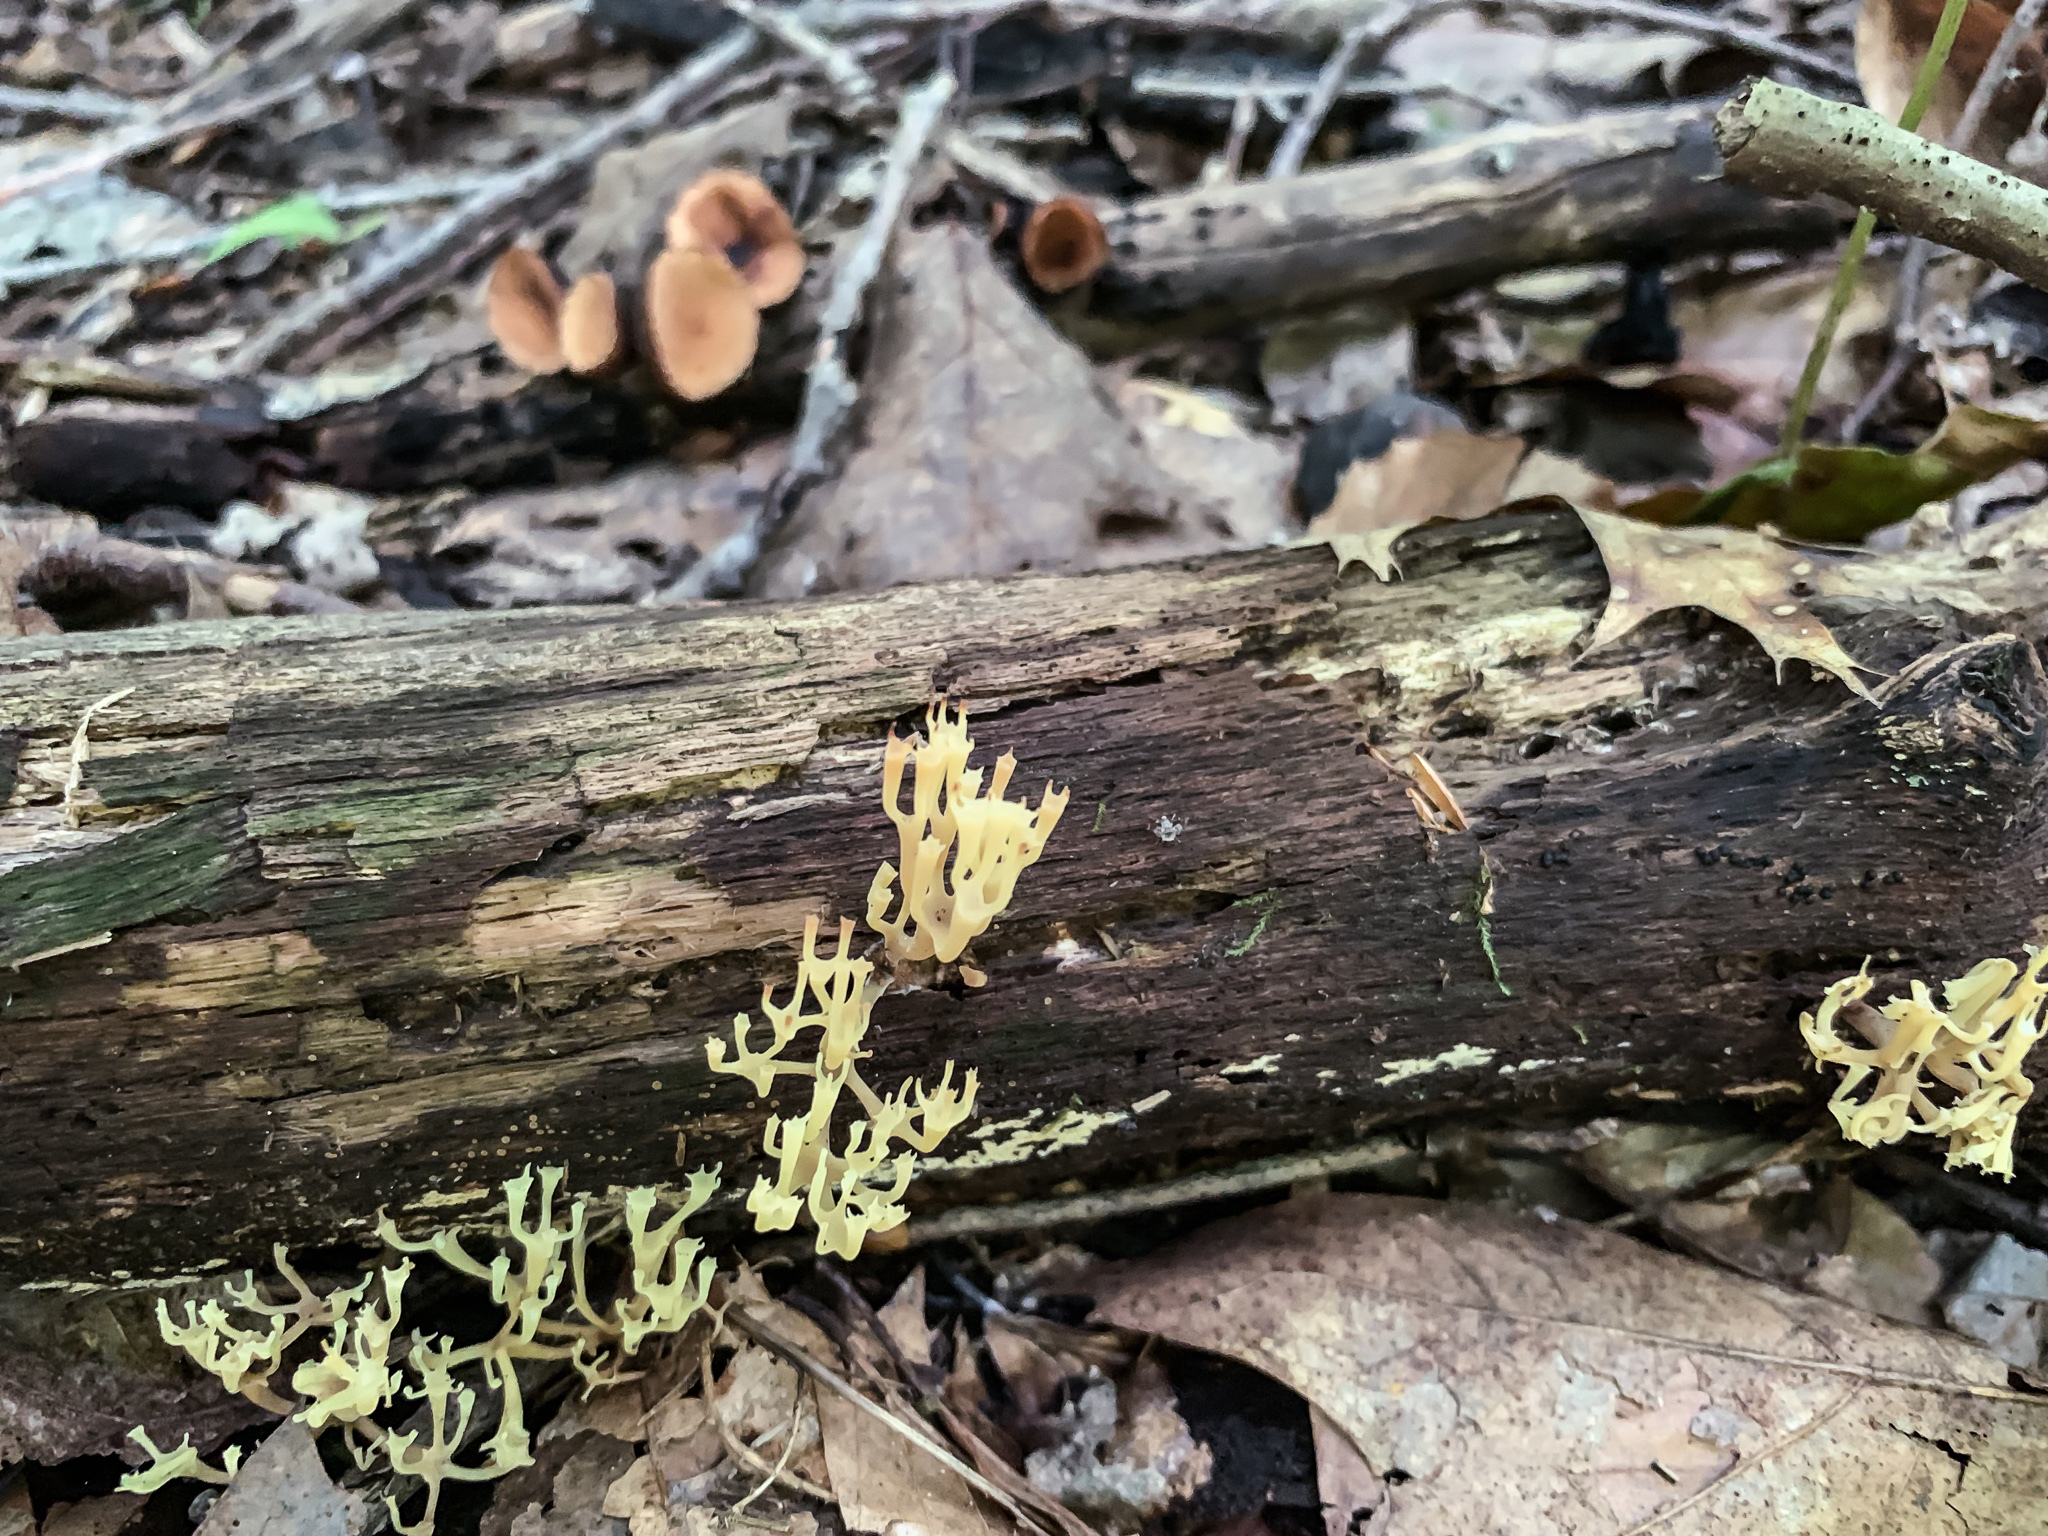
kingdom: Fungi
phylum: Basidiomycota
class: Agaricomycetes
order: Russulales
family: Auriscalpiaceae
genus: Artomyces
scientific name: Artomyces pyxidatus
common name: Crown-tipped coral fungus
